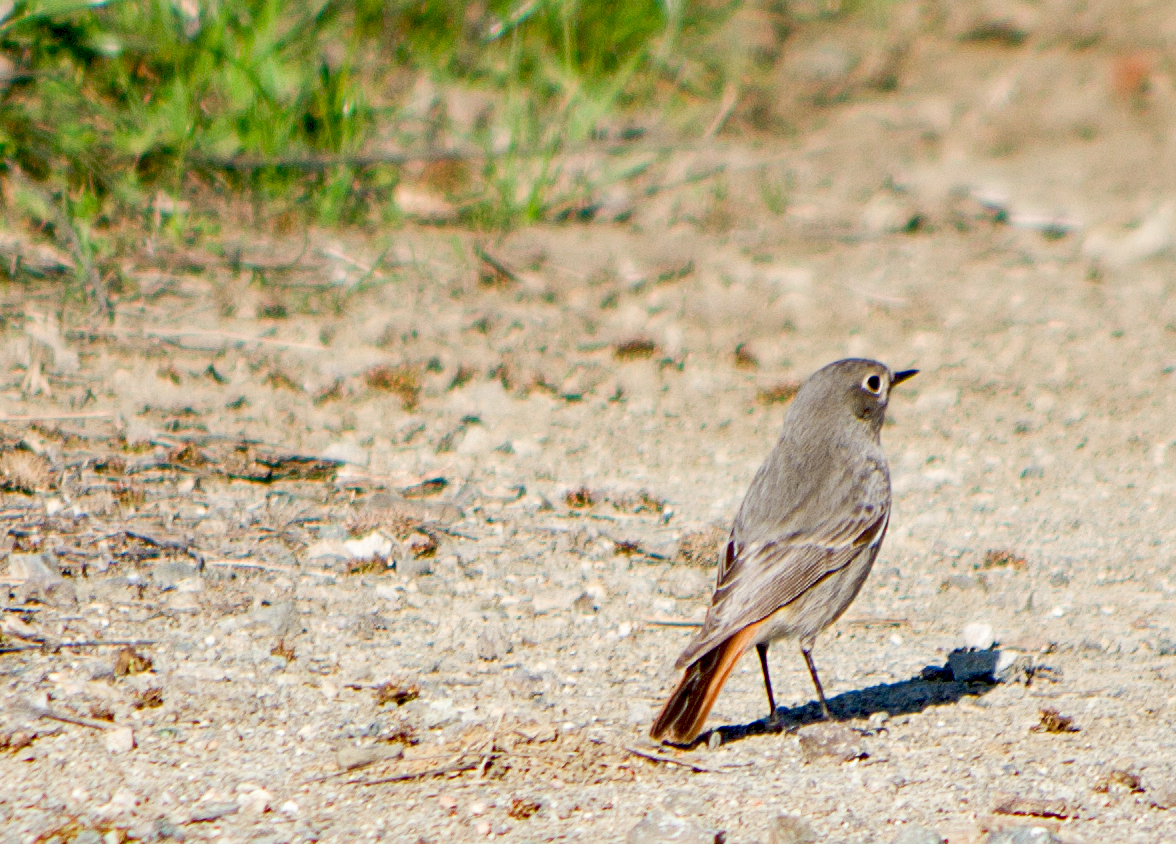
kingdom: Animalia
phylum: Chordata
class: Aves
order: Passeriformes
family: Muscicapidae
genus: Phoenicurus
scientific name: Phoenicurus ochruros
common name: Black redstart
